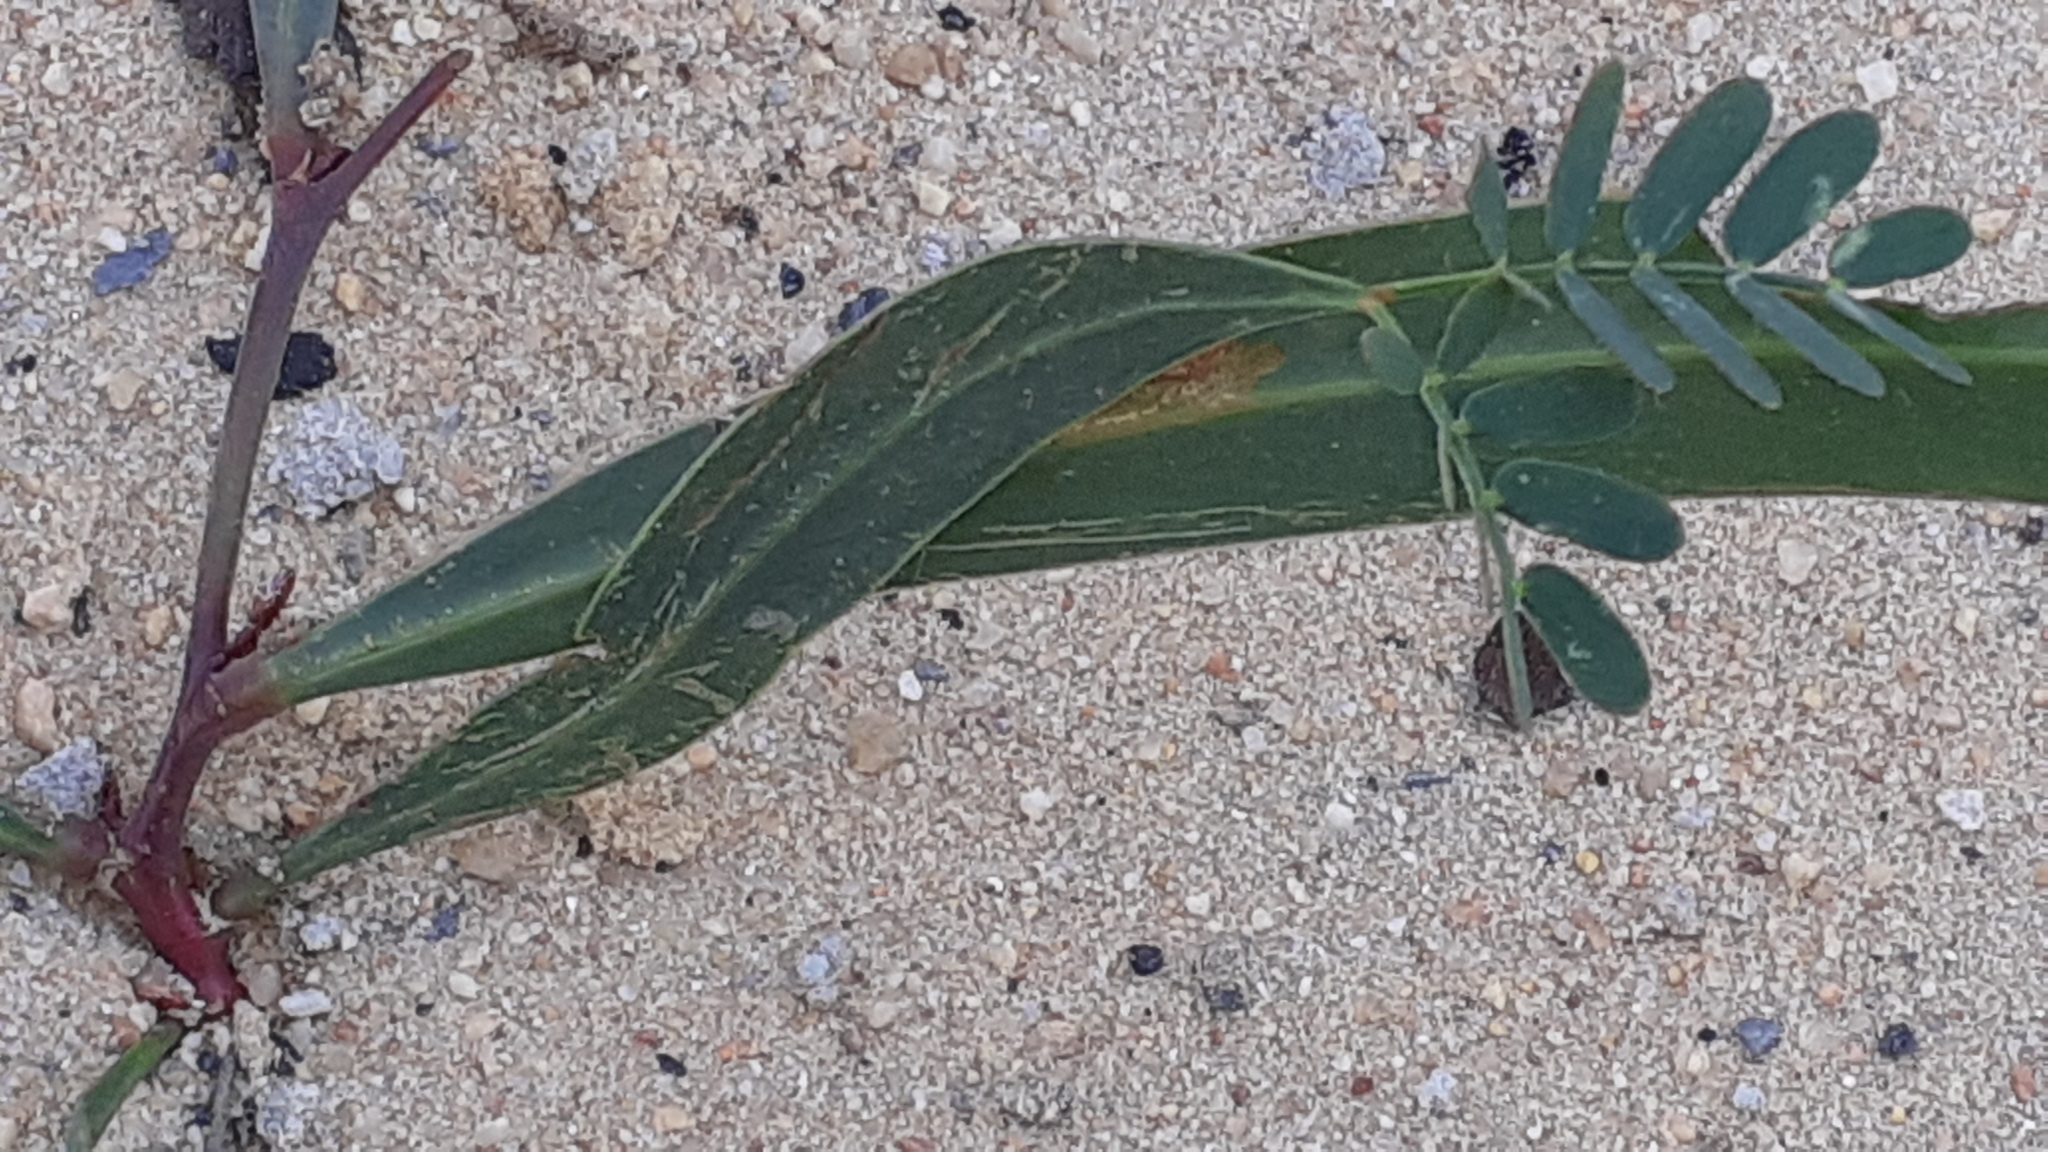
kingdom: Plantae
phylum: Tracheophyta
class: Magnoliopsida
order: Fabales
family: Fabaceae
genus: Acacia
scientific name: Acacia saligna
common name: Orange wattle
